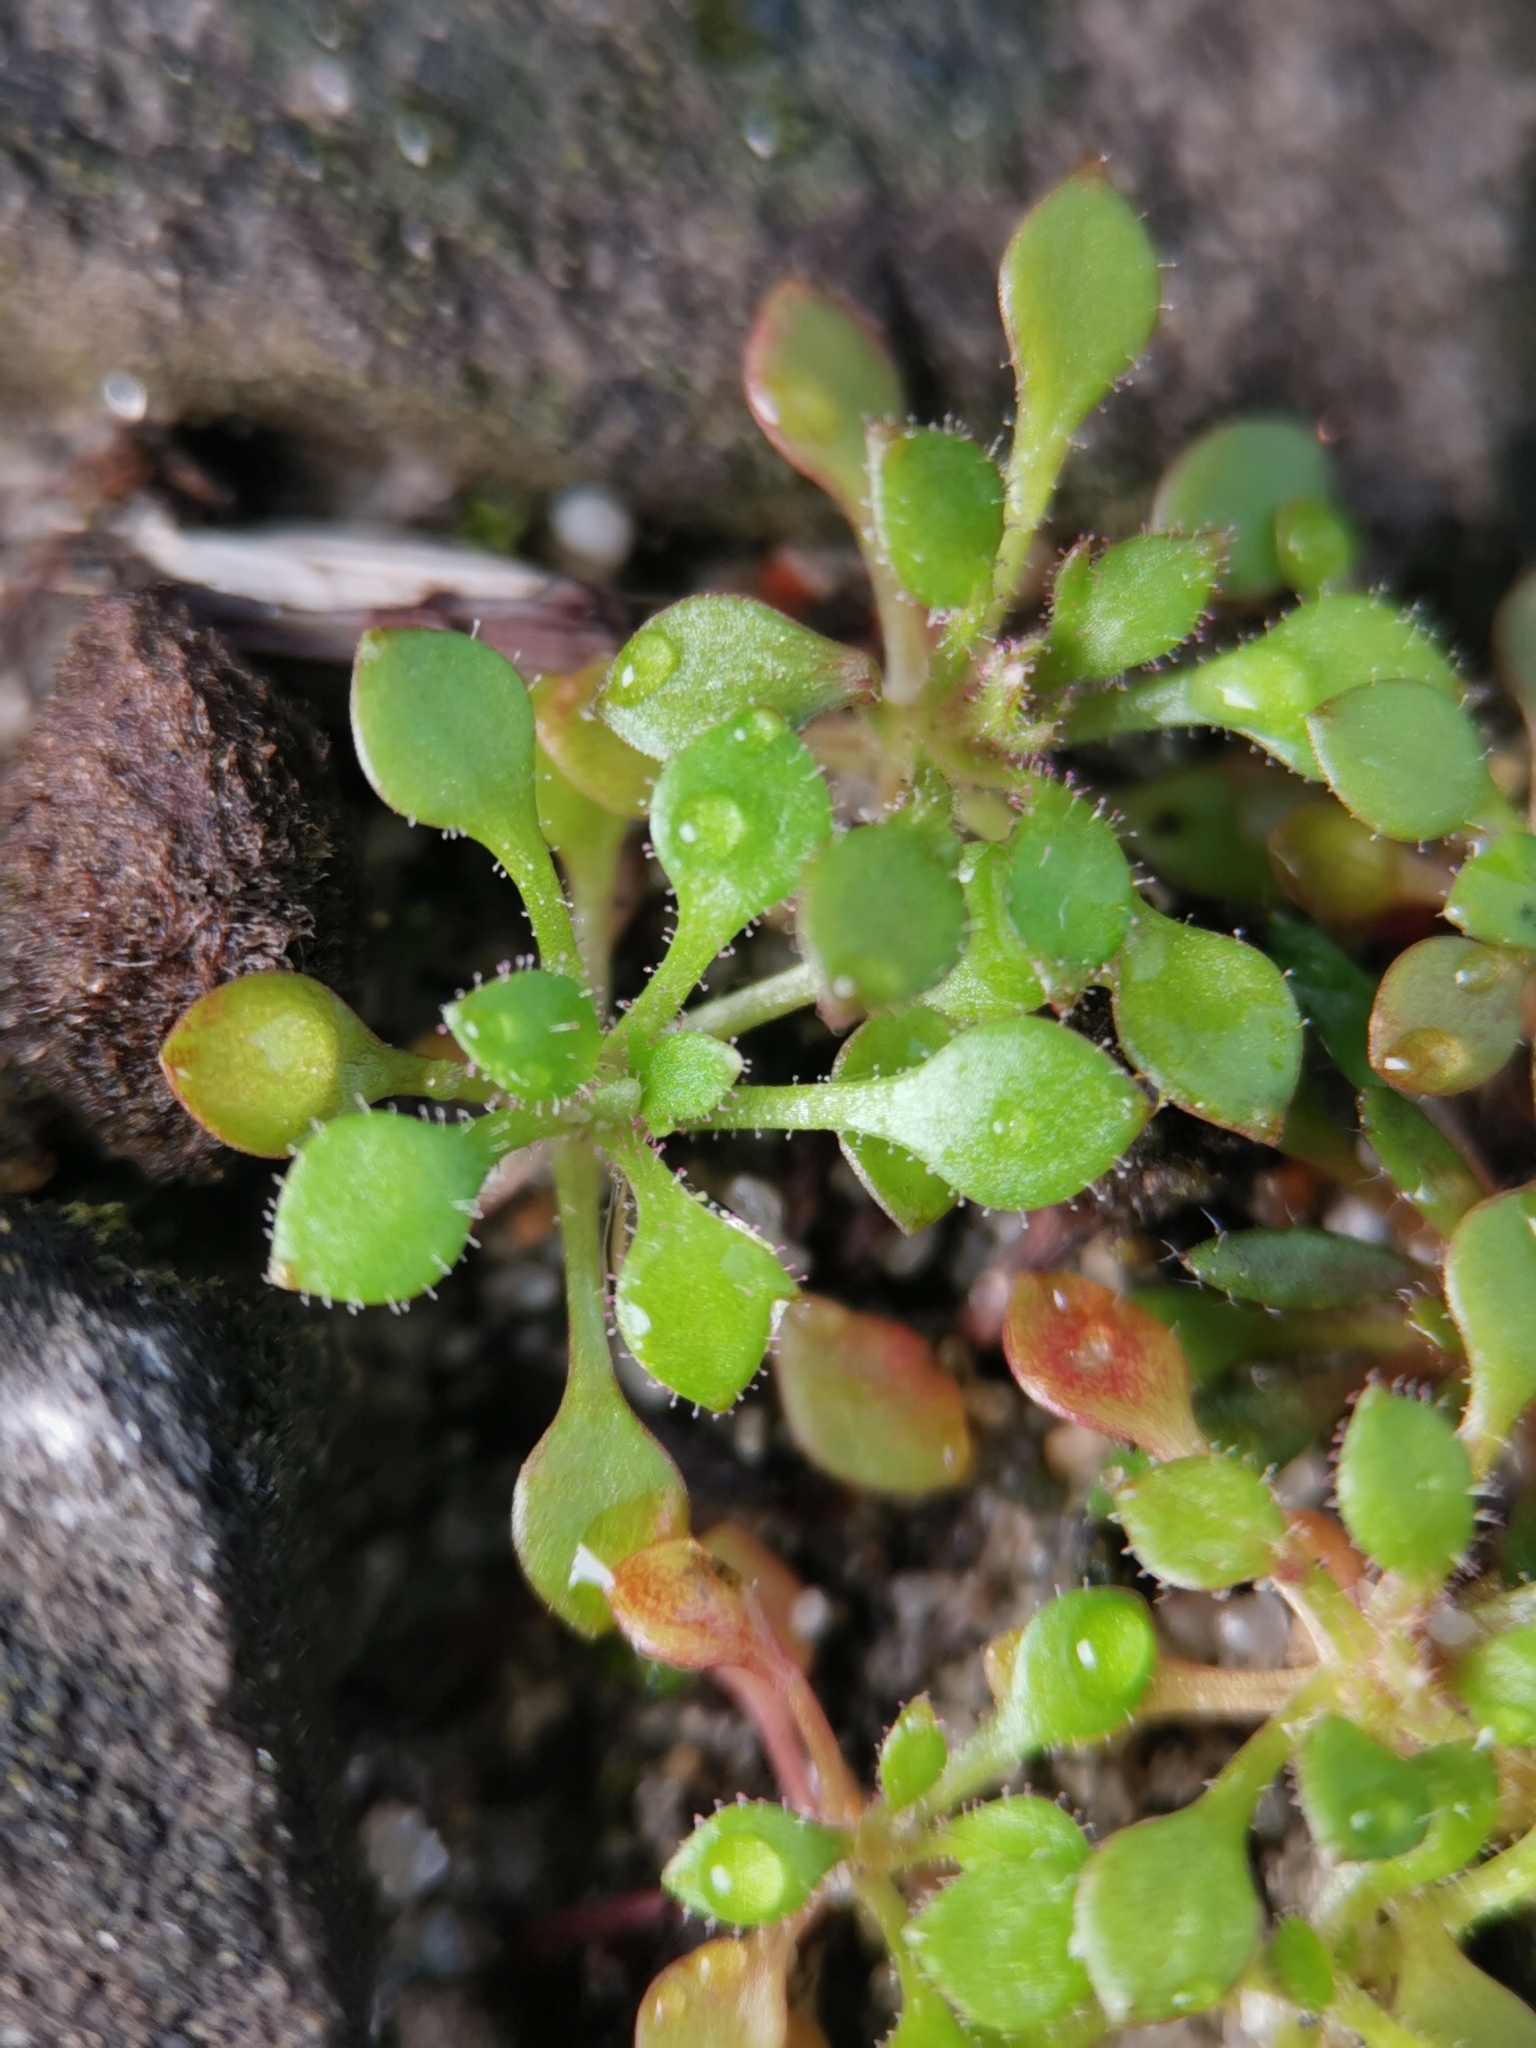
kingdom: Plantae
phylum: Tracheophyta
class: Magnoliopsida
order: Saxifragales
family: Saxifragaceae
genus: Saxifraga
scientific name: Saxifraga tridactylites
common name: Rue-leaved saxifrage
